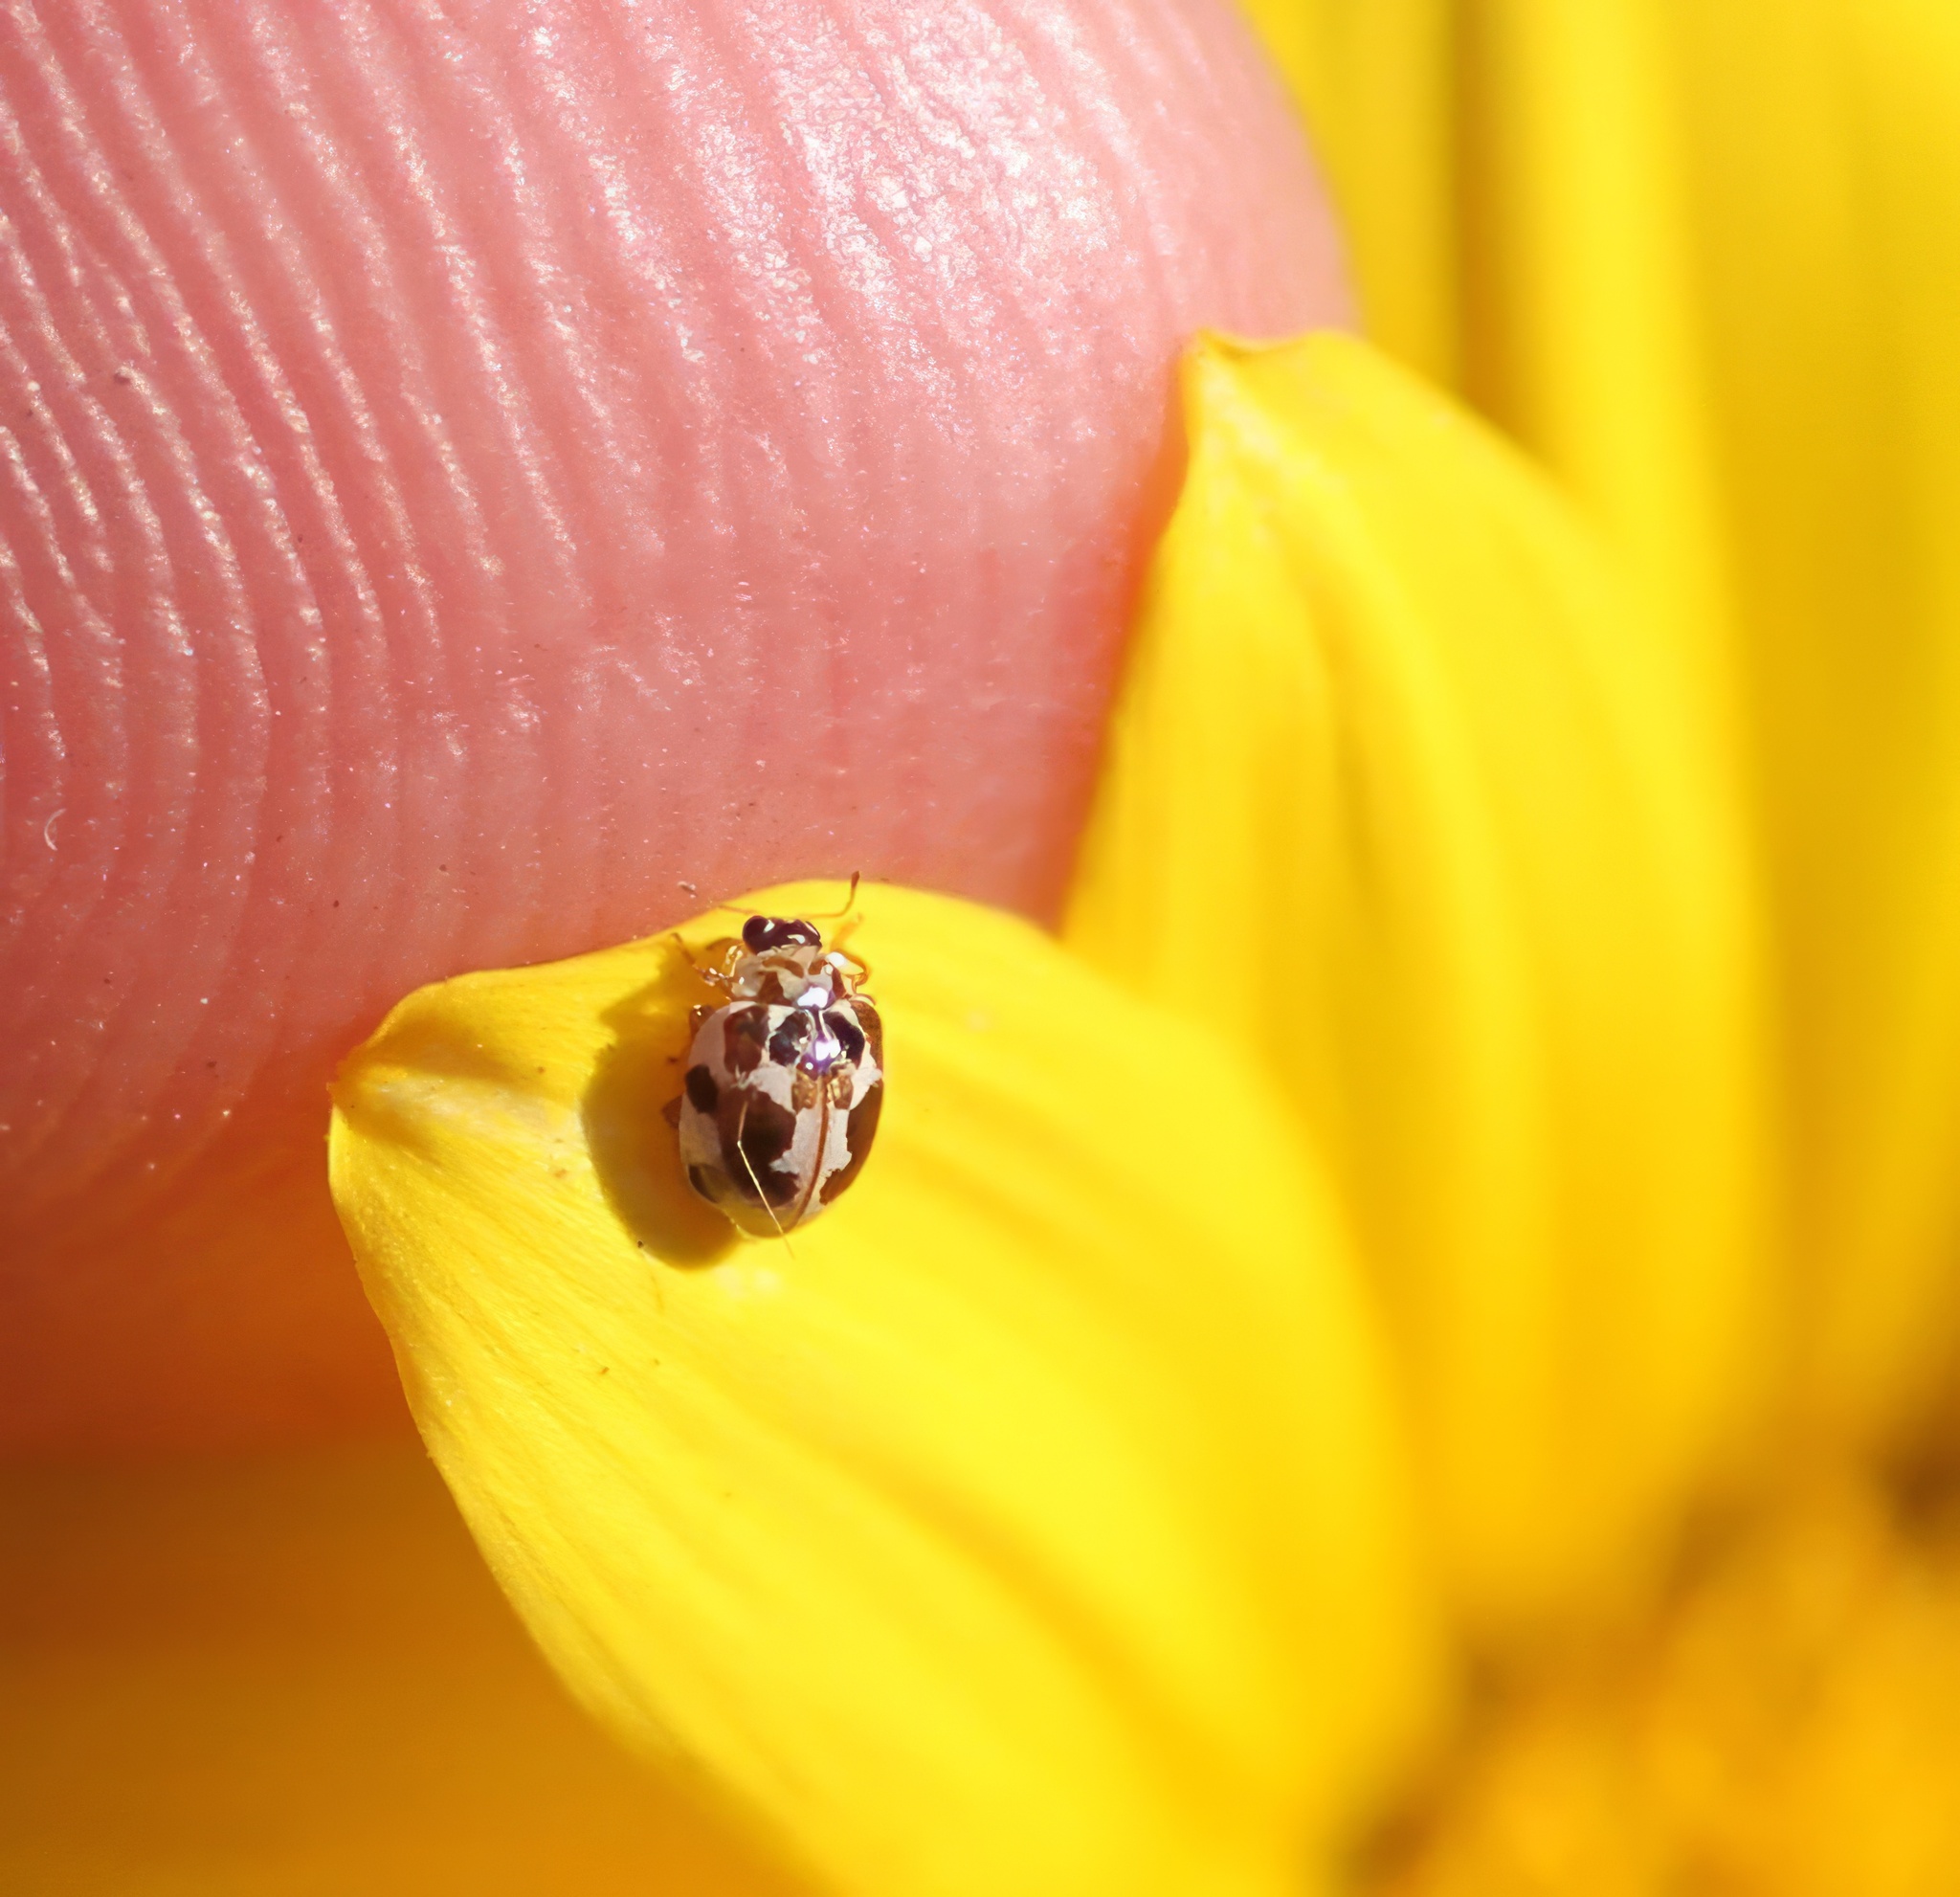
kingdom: Animalia
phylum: Arthropoda
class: Insecta
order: Coleoptera
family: Coccinellidae
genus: Psyllobora
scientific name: Psyllobora vigintimaculata
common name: Ladybird beetle
